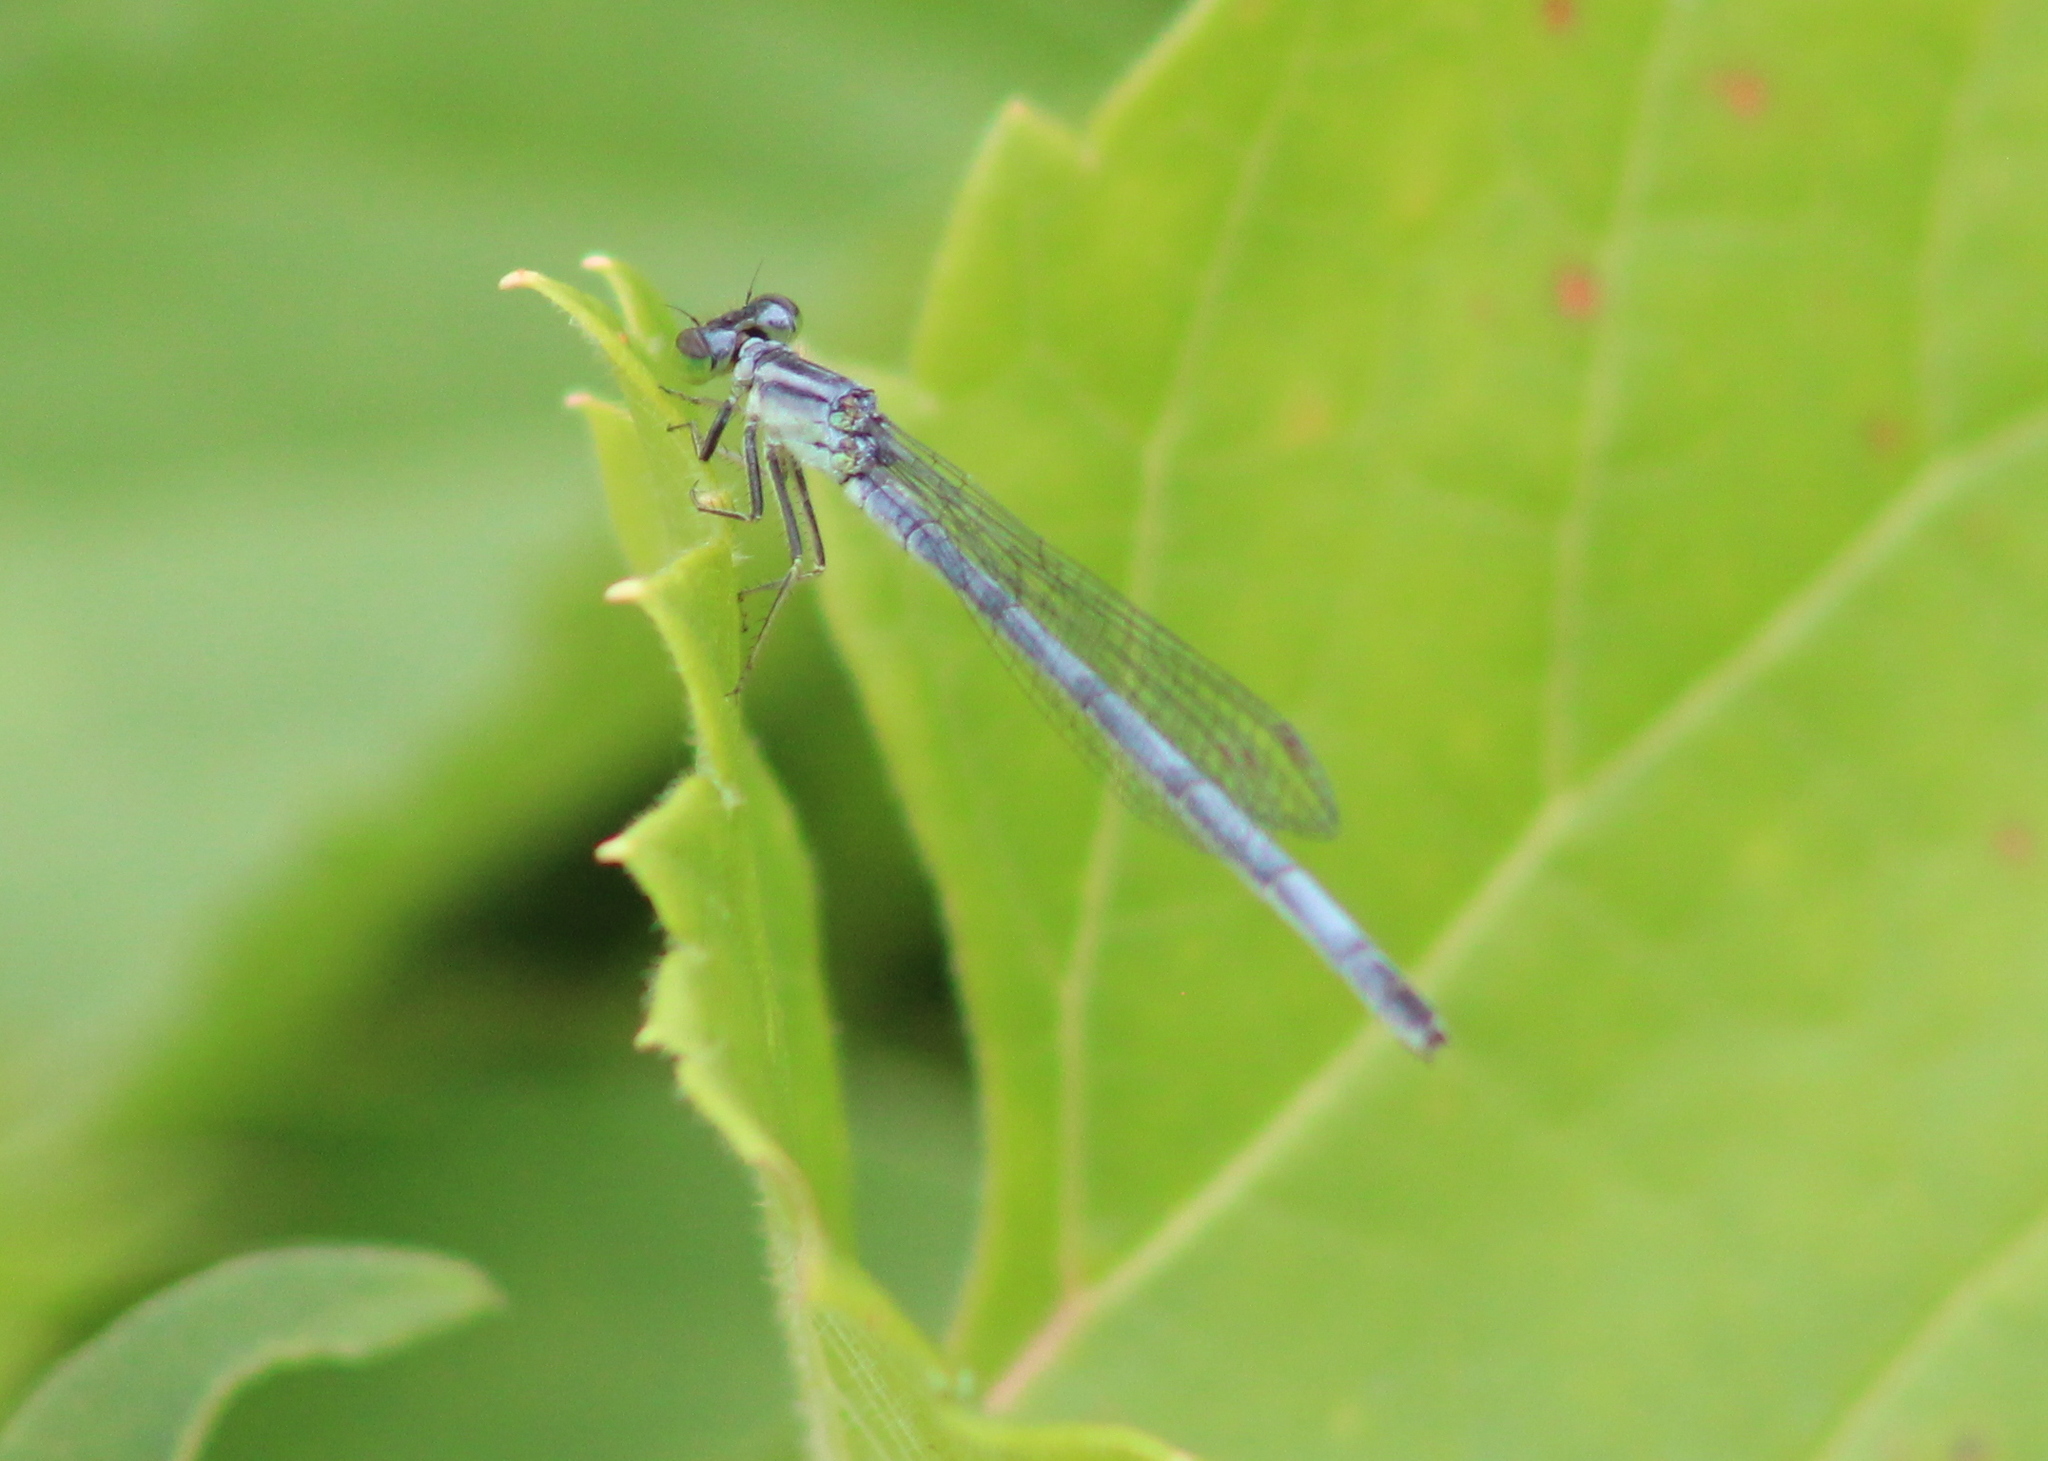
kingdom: Animalia
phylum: Arthropoda
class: Insecta
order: Odonata
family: Coenagrionidae
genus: Ischnura
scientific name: Ischnura verticalis
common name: Eastern forktail
